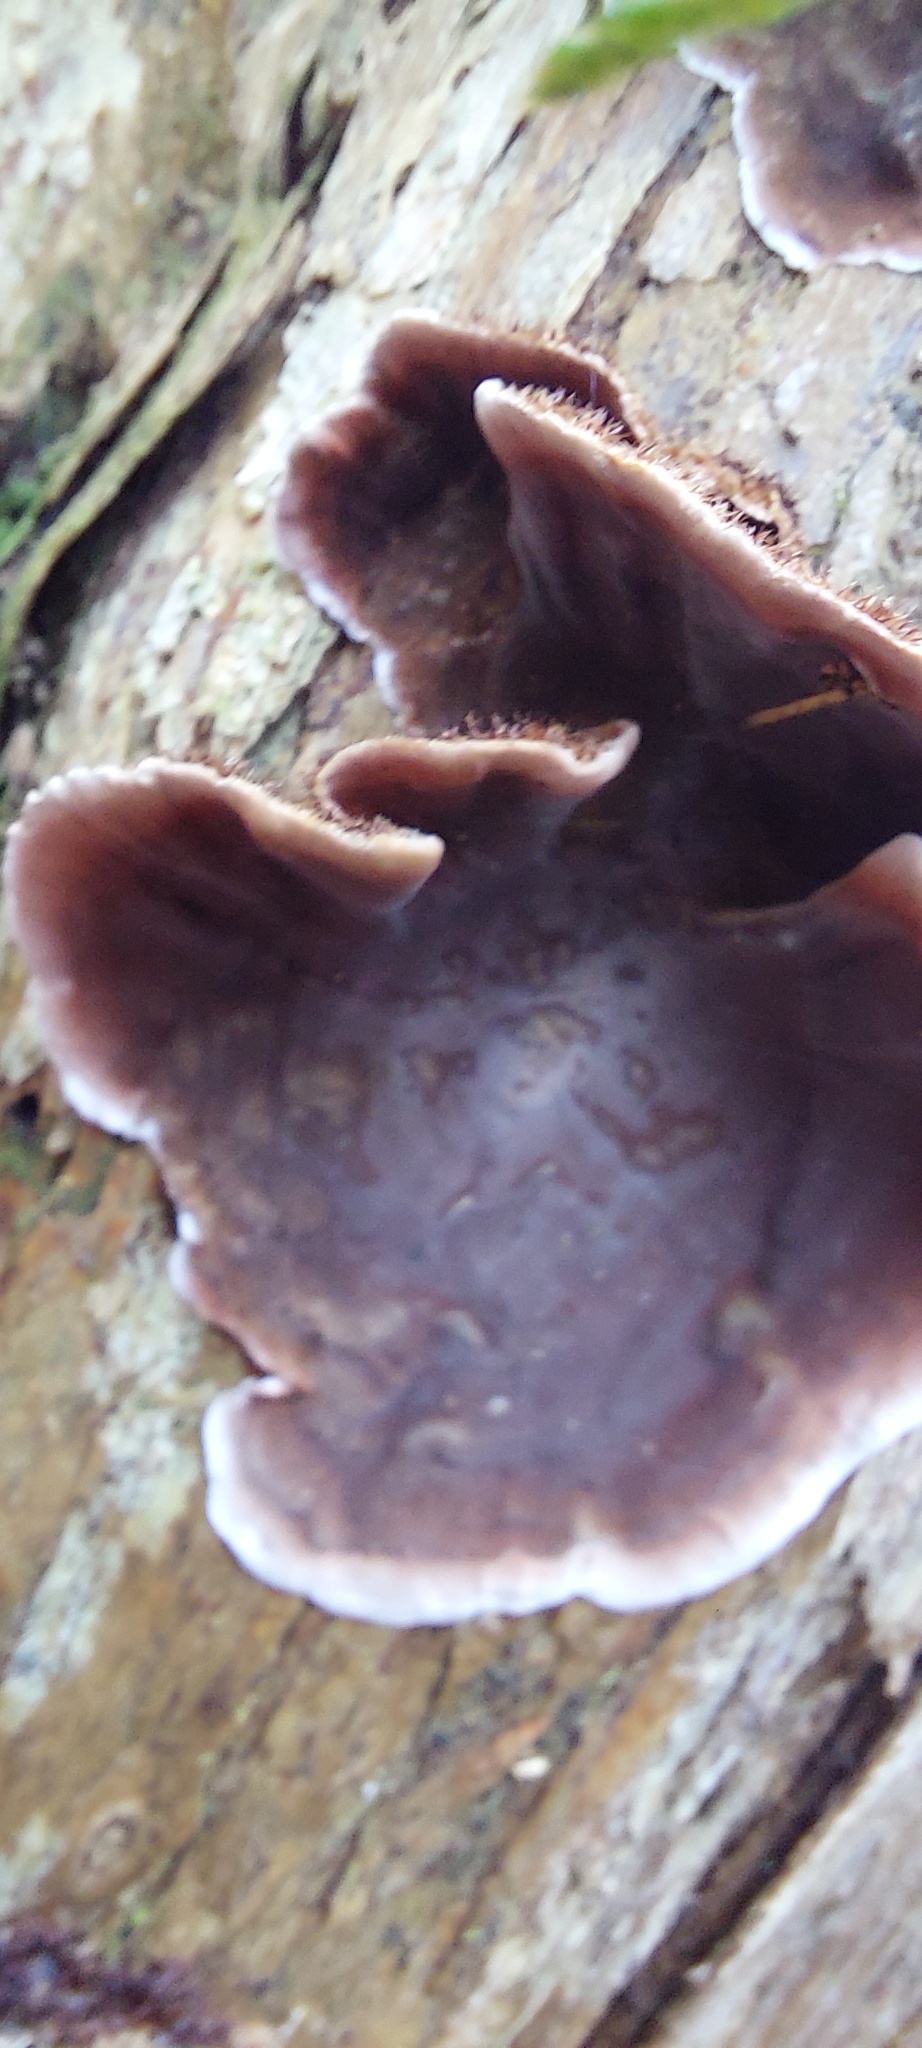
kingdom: Fungi
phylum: Basidiomycota
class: Agaricomycetes
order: Russulales
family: Stereaceae
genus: Xylobolus
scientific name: Xylobolus illudens
